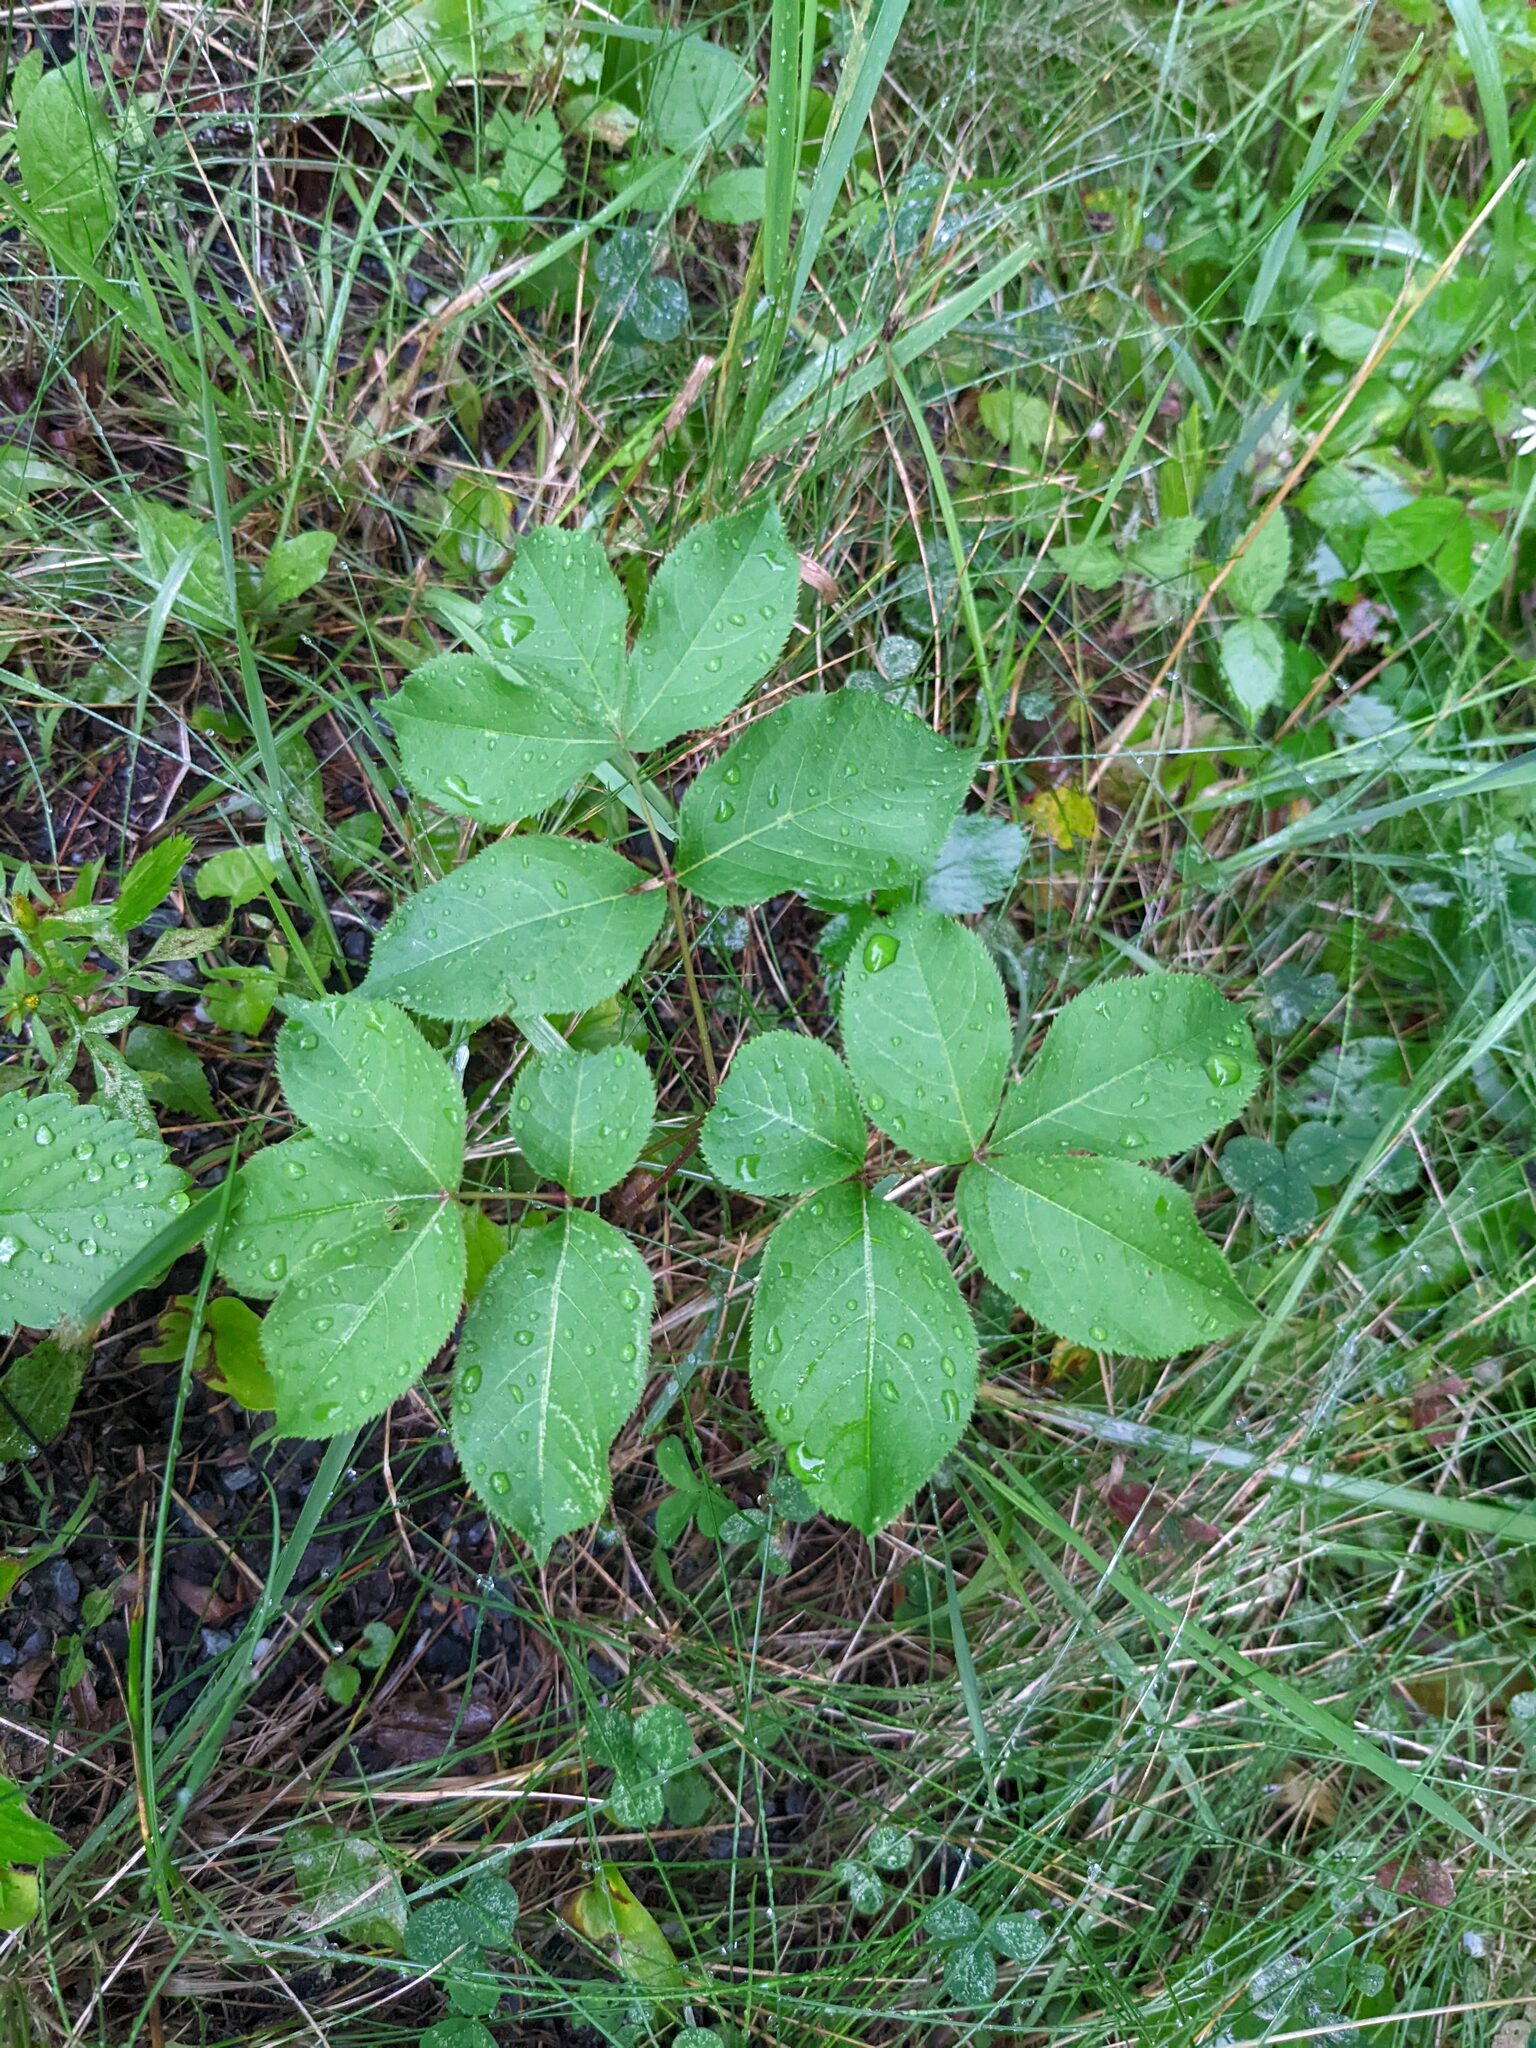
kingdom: Plantae
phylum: Tracheophyta
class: Magnoliopsida
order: Apiales
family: Araliaceae
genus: Aralia
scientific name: Aralia nudicaulis
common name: Wild sarsaparilla
